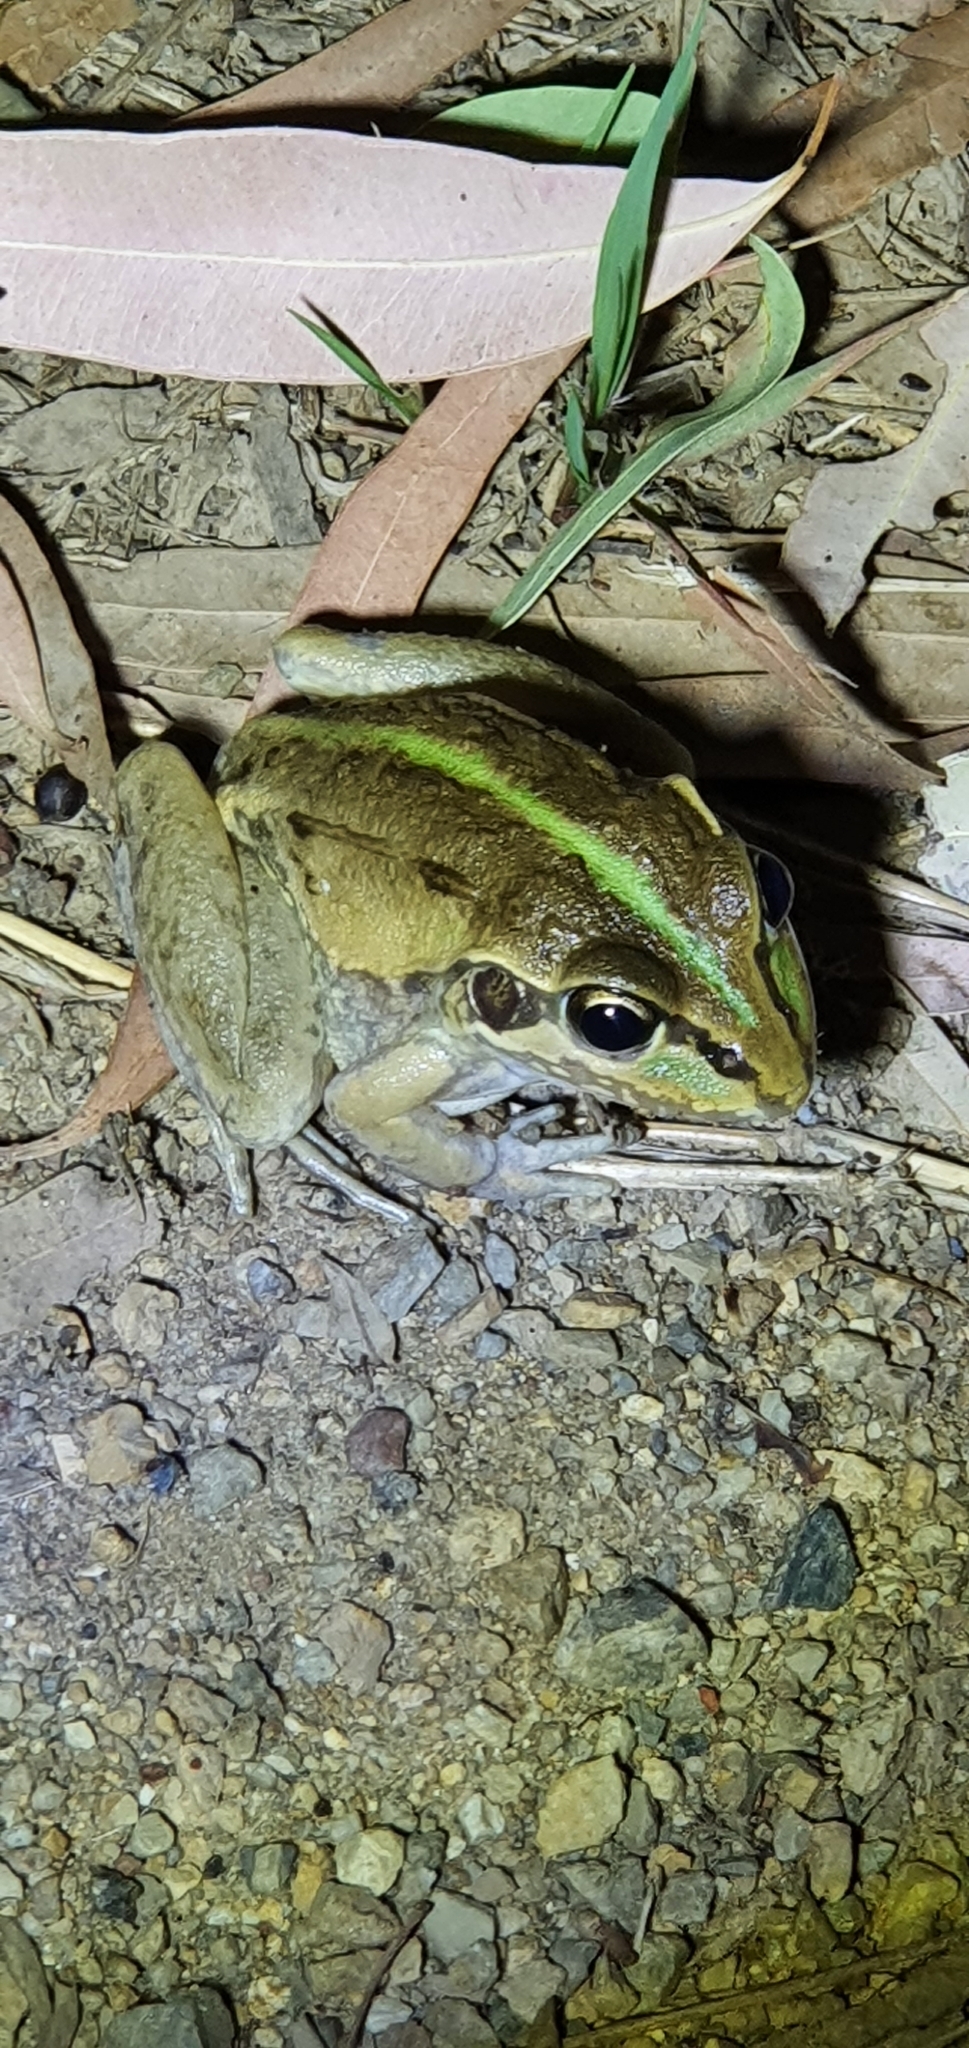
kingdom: Animalia
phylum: Chordata
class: Amphibia
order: Anura
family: Pelodryadidae
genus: Ranoidea
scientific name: Ranoidea alboguttata
